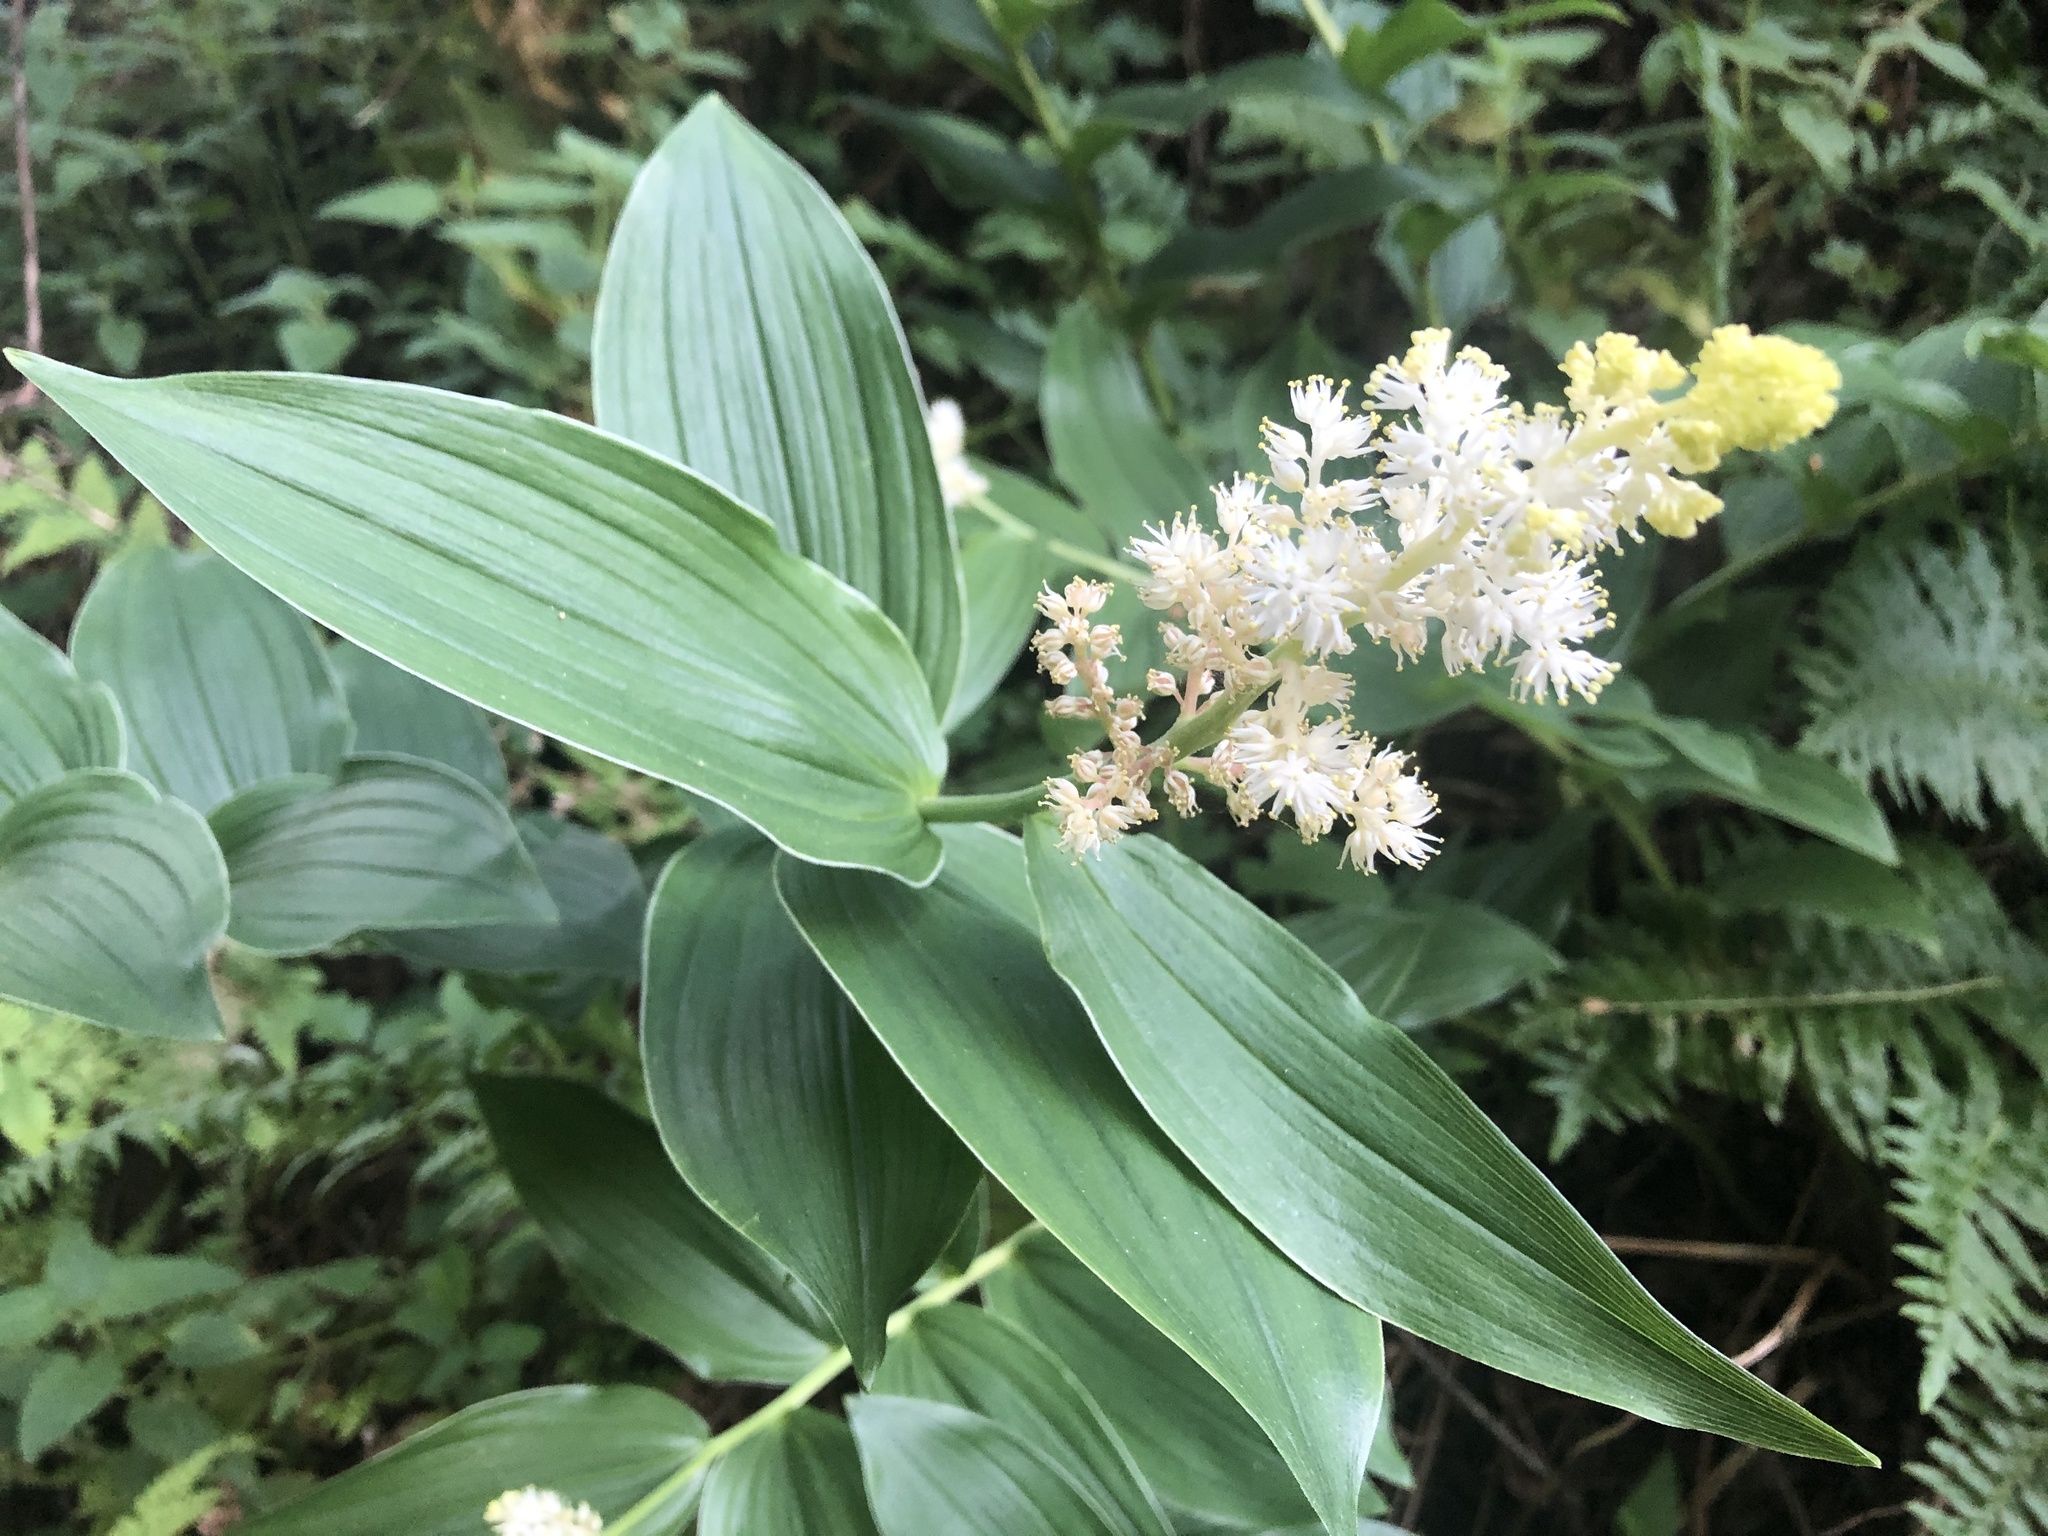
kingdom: Plantae
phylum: Tracheophyta
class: Liliopsida
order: Asparagales
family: Asparagaceae
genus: Maianthemum
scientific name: Maianthemum racemosum
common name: False spikenard
